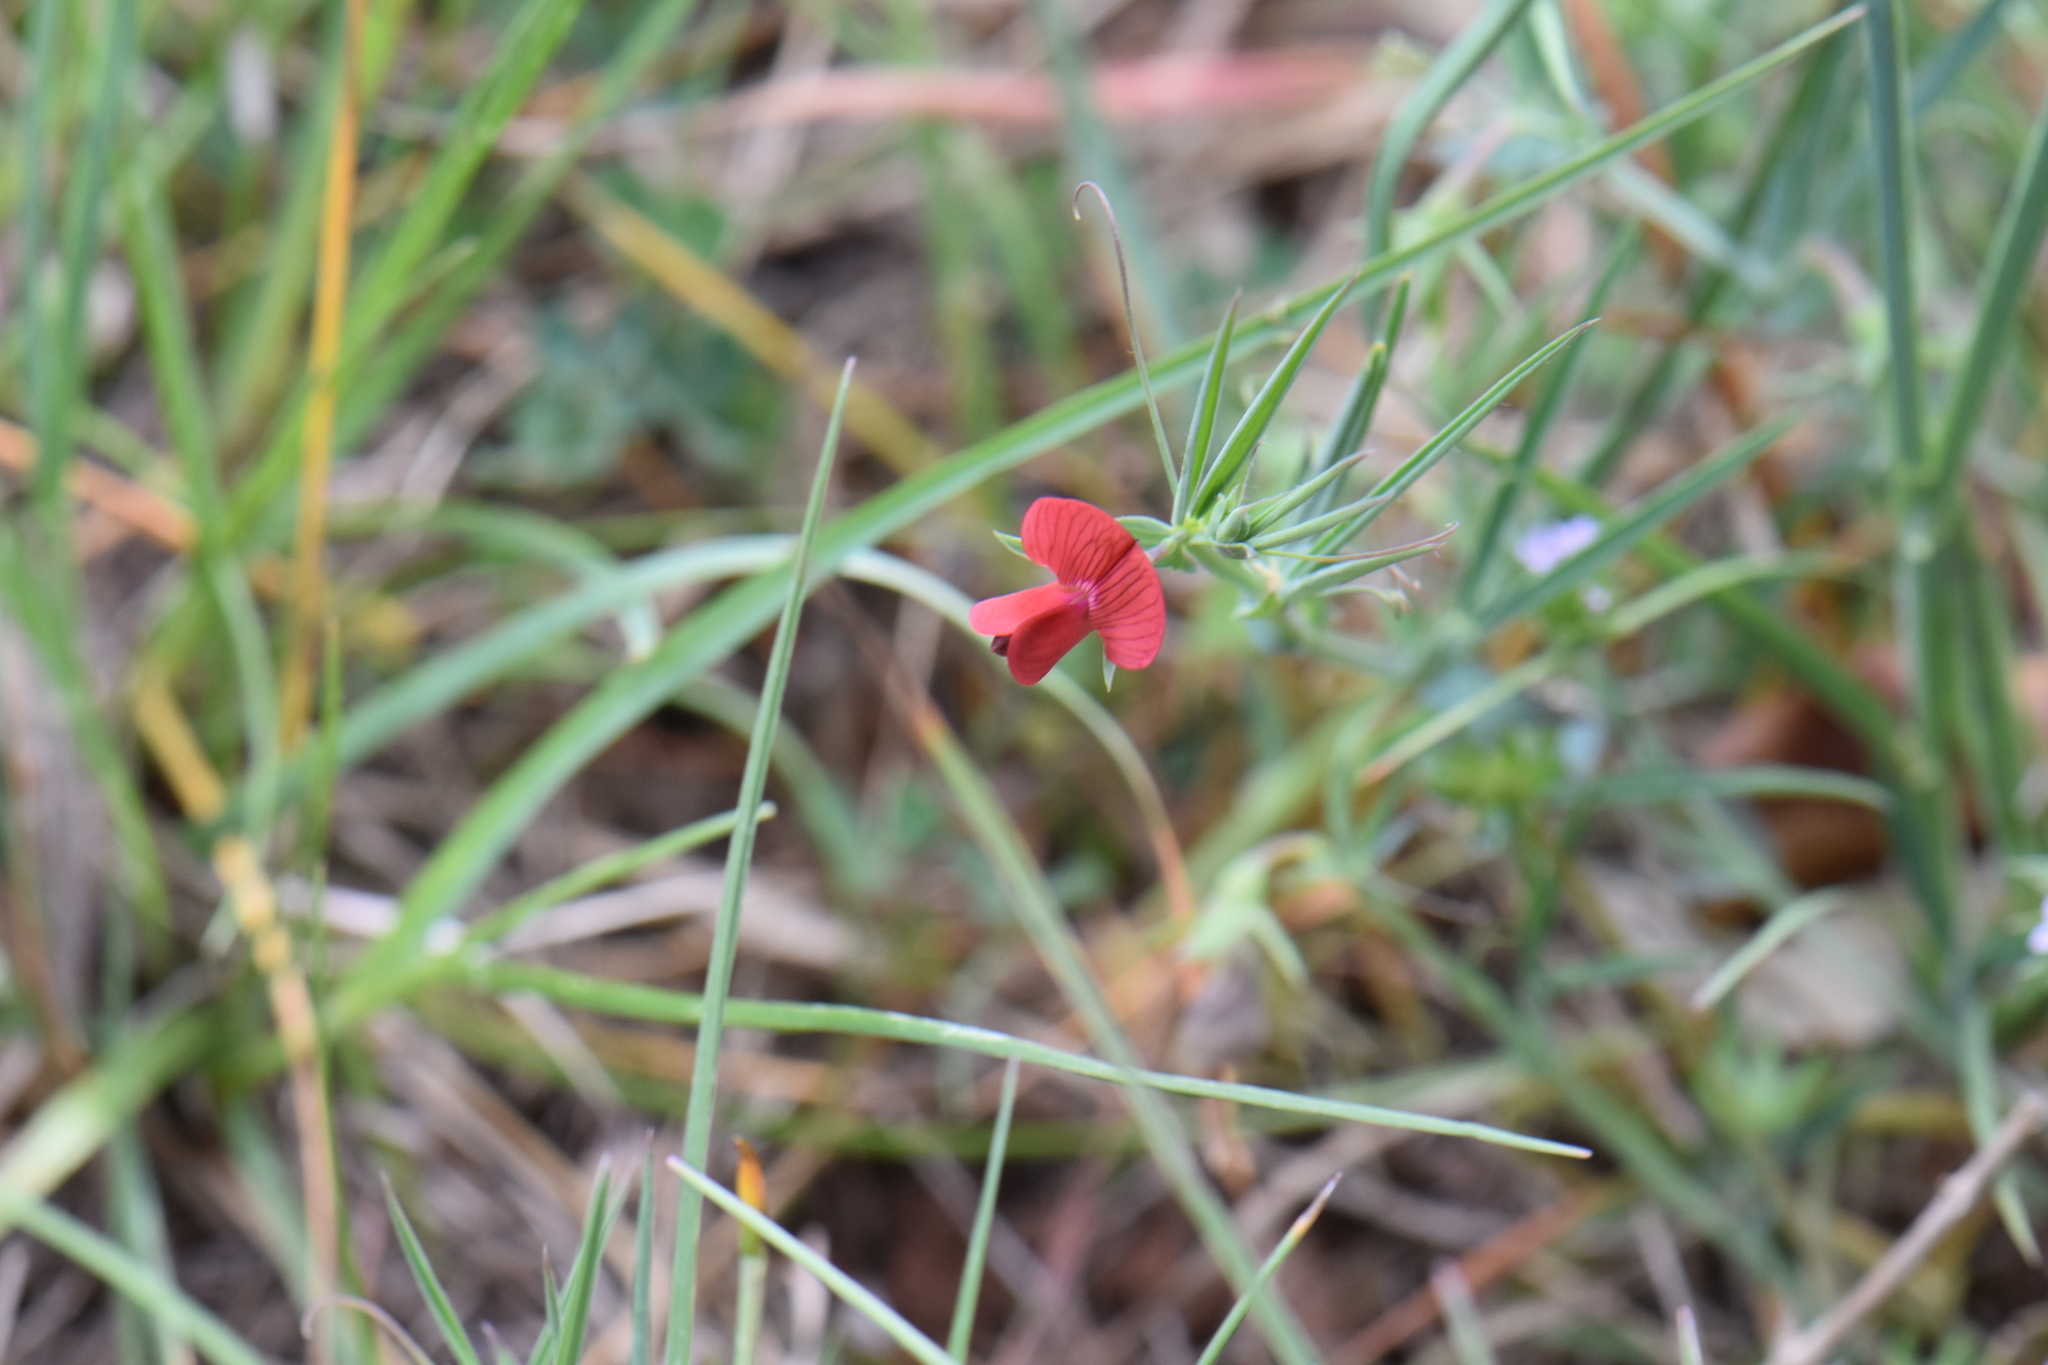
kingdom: Plantae
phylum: Tracheophyta
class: Magnoliopsida
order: Fabales
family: Fabaceae
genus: Lathyrus
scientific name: Lathyrus cicera
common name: Red vetchling
